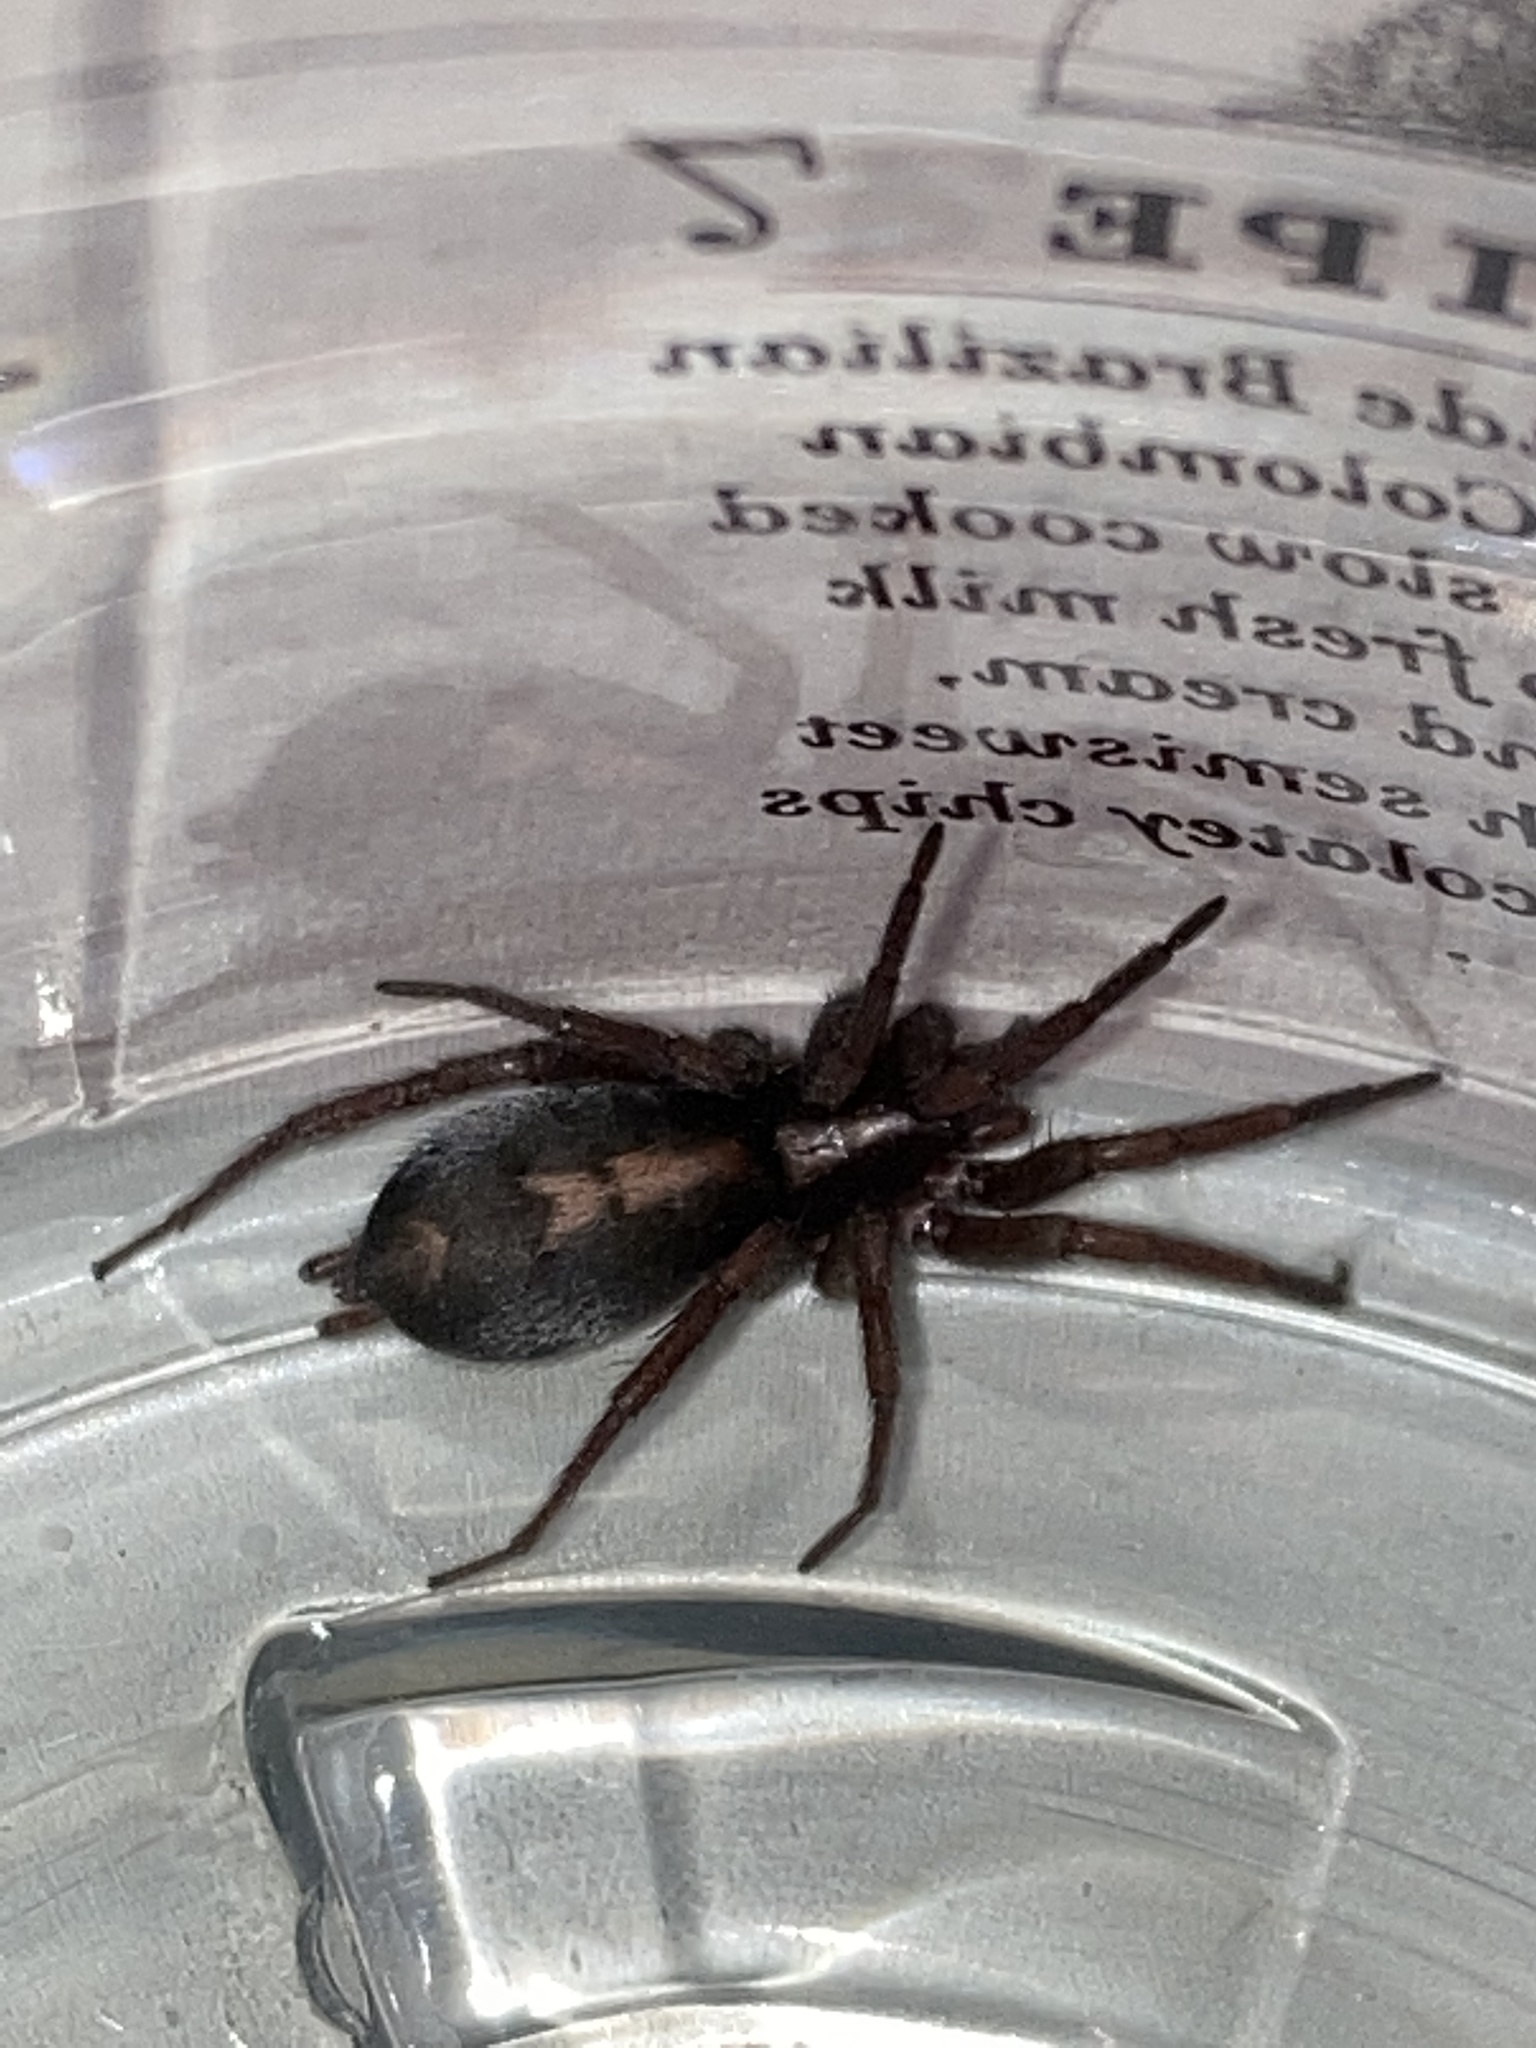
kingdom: Animalia
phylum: Arthropoda
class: Arachnida
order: Araneae
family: Gnaphosidae
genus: Herpyllus
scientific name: Herpyllus propinquus
